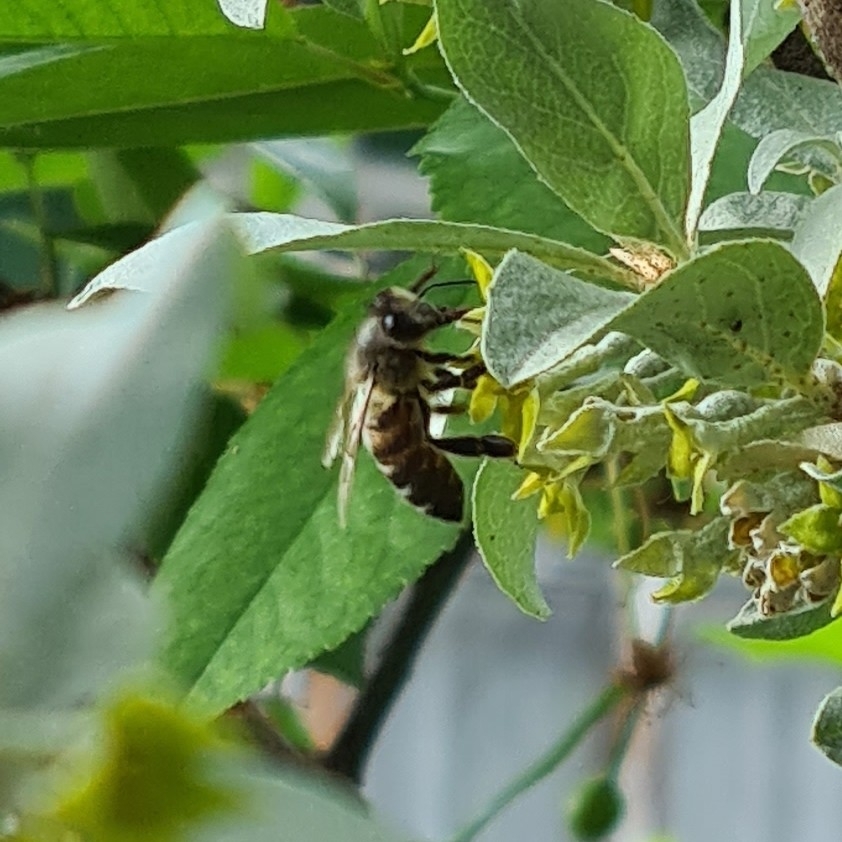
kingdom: Animalia
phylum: Arthropoda
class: Insecta
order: Hymenoptera
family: Apidae
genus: Apis
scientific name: Apis mellifera
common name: Honey bee
